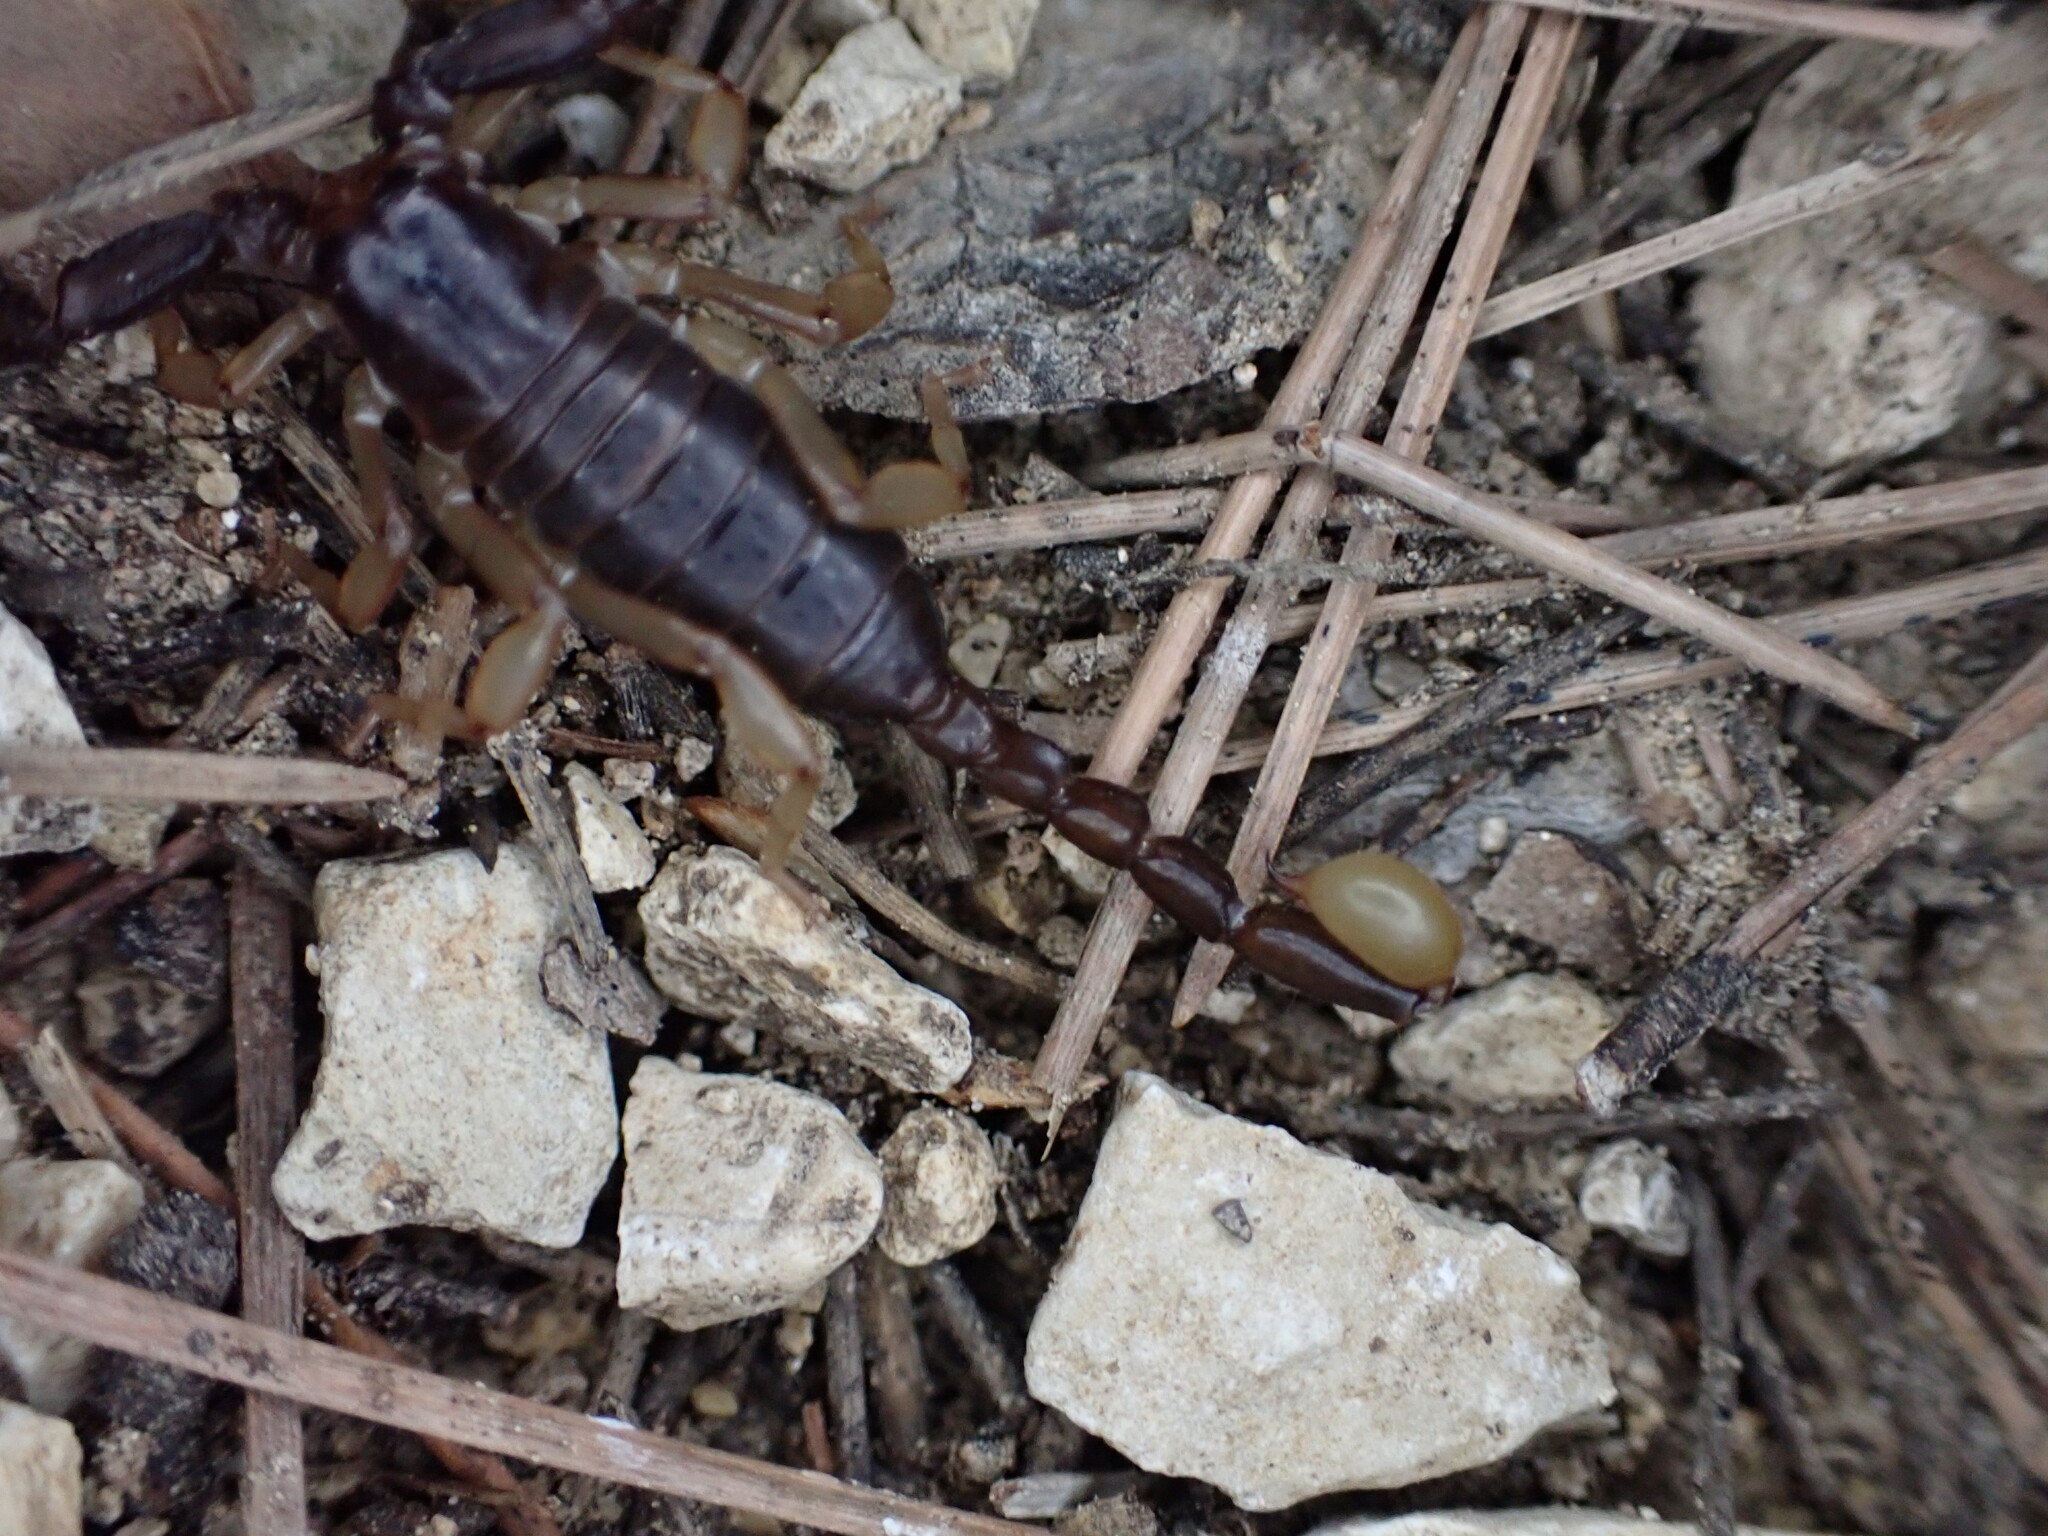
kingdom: Animalia
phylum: Arthropoda
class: Arachnida
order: Scorpiones
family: Euscorpiidae
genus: Euscorpius
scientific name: Euscorpius niciensis
